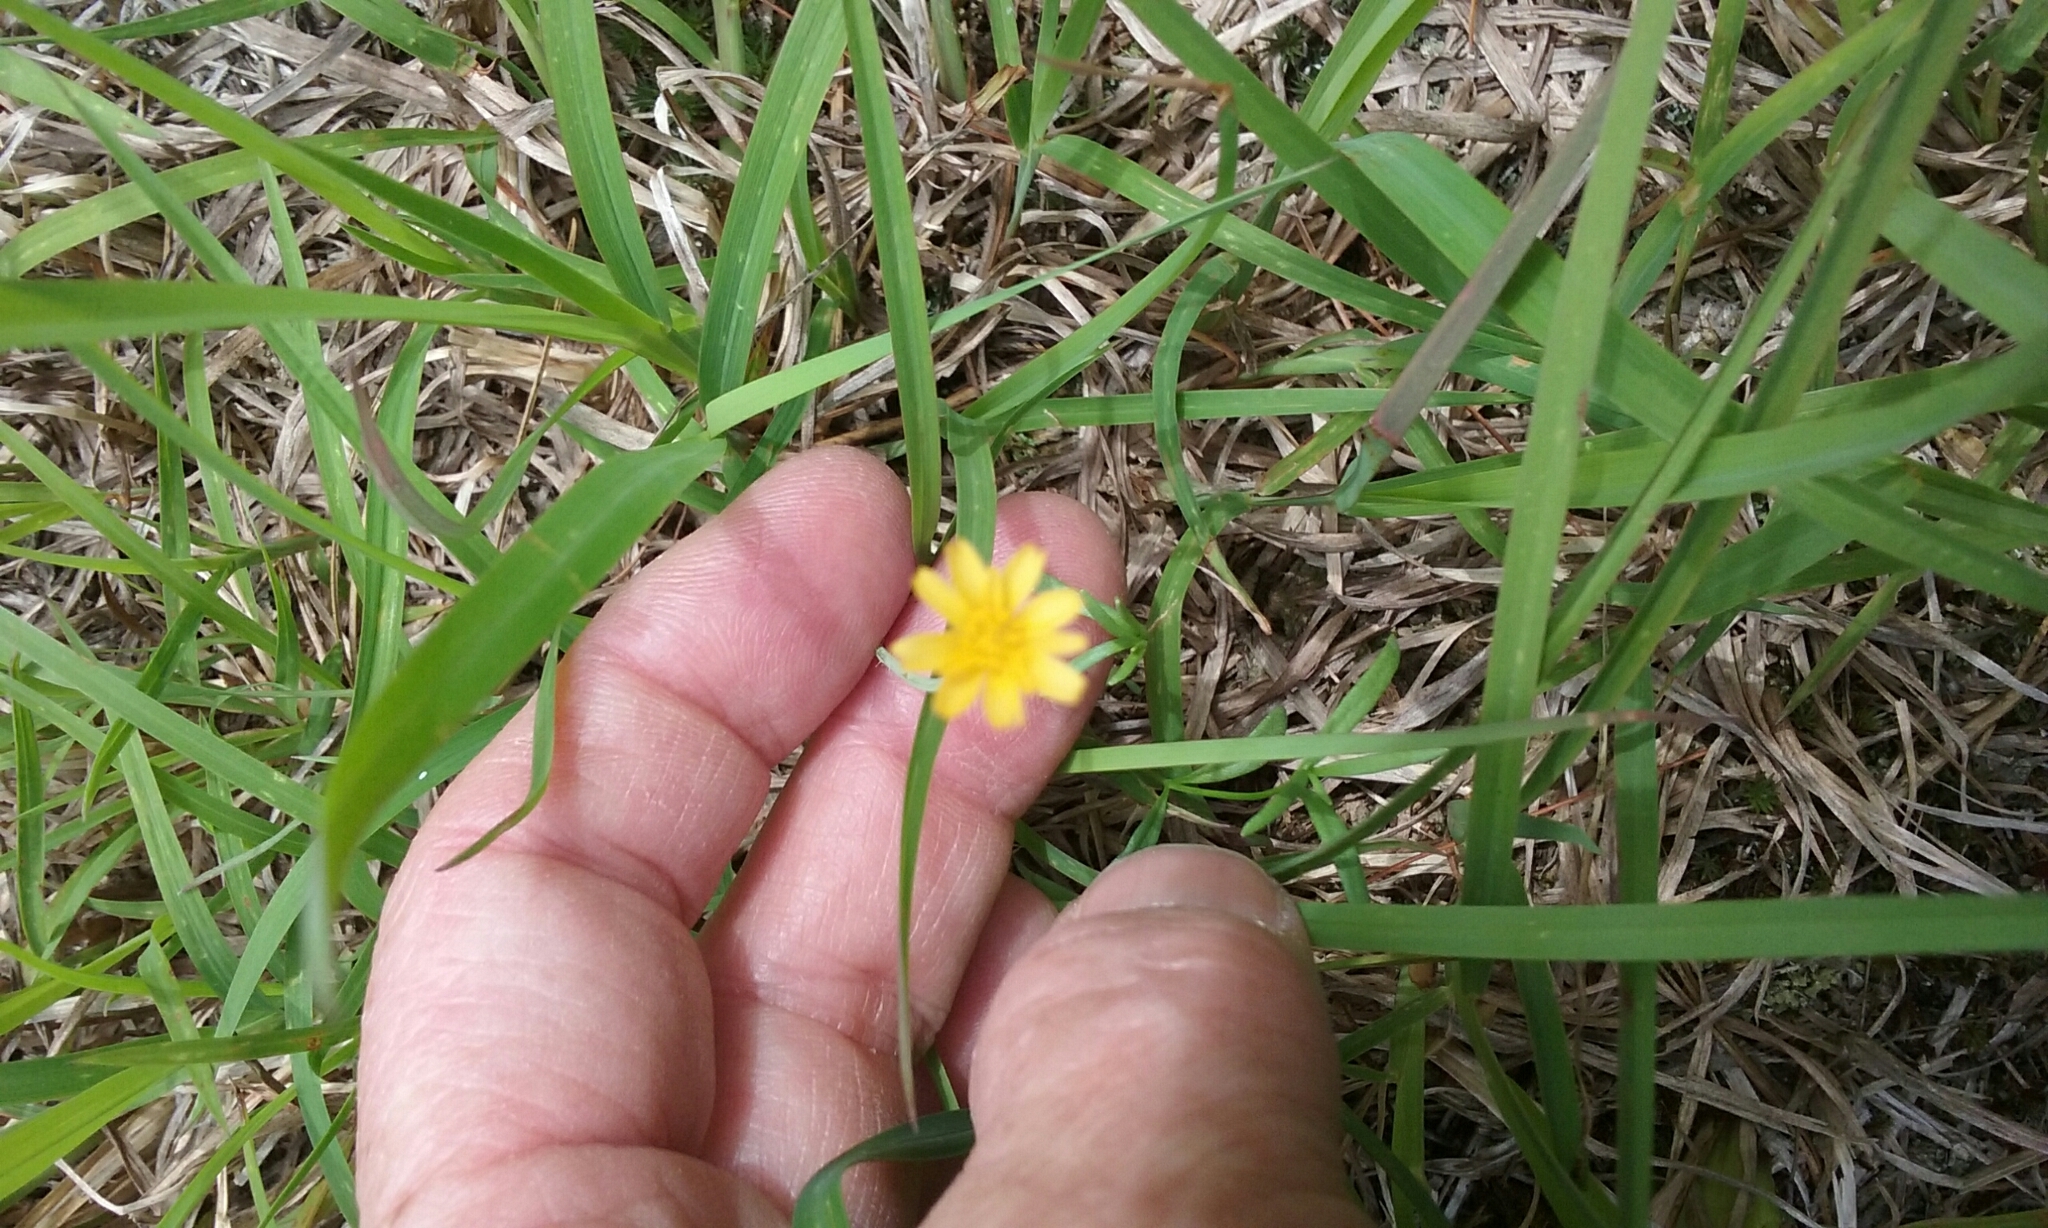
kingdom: Plantae
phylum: Tracheophyta
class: Magnoliopsida
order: Asterales
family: Asteraceae
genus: Krigia
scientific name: Krigia virginica
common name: Virginia dwarf-dandelion
